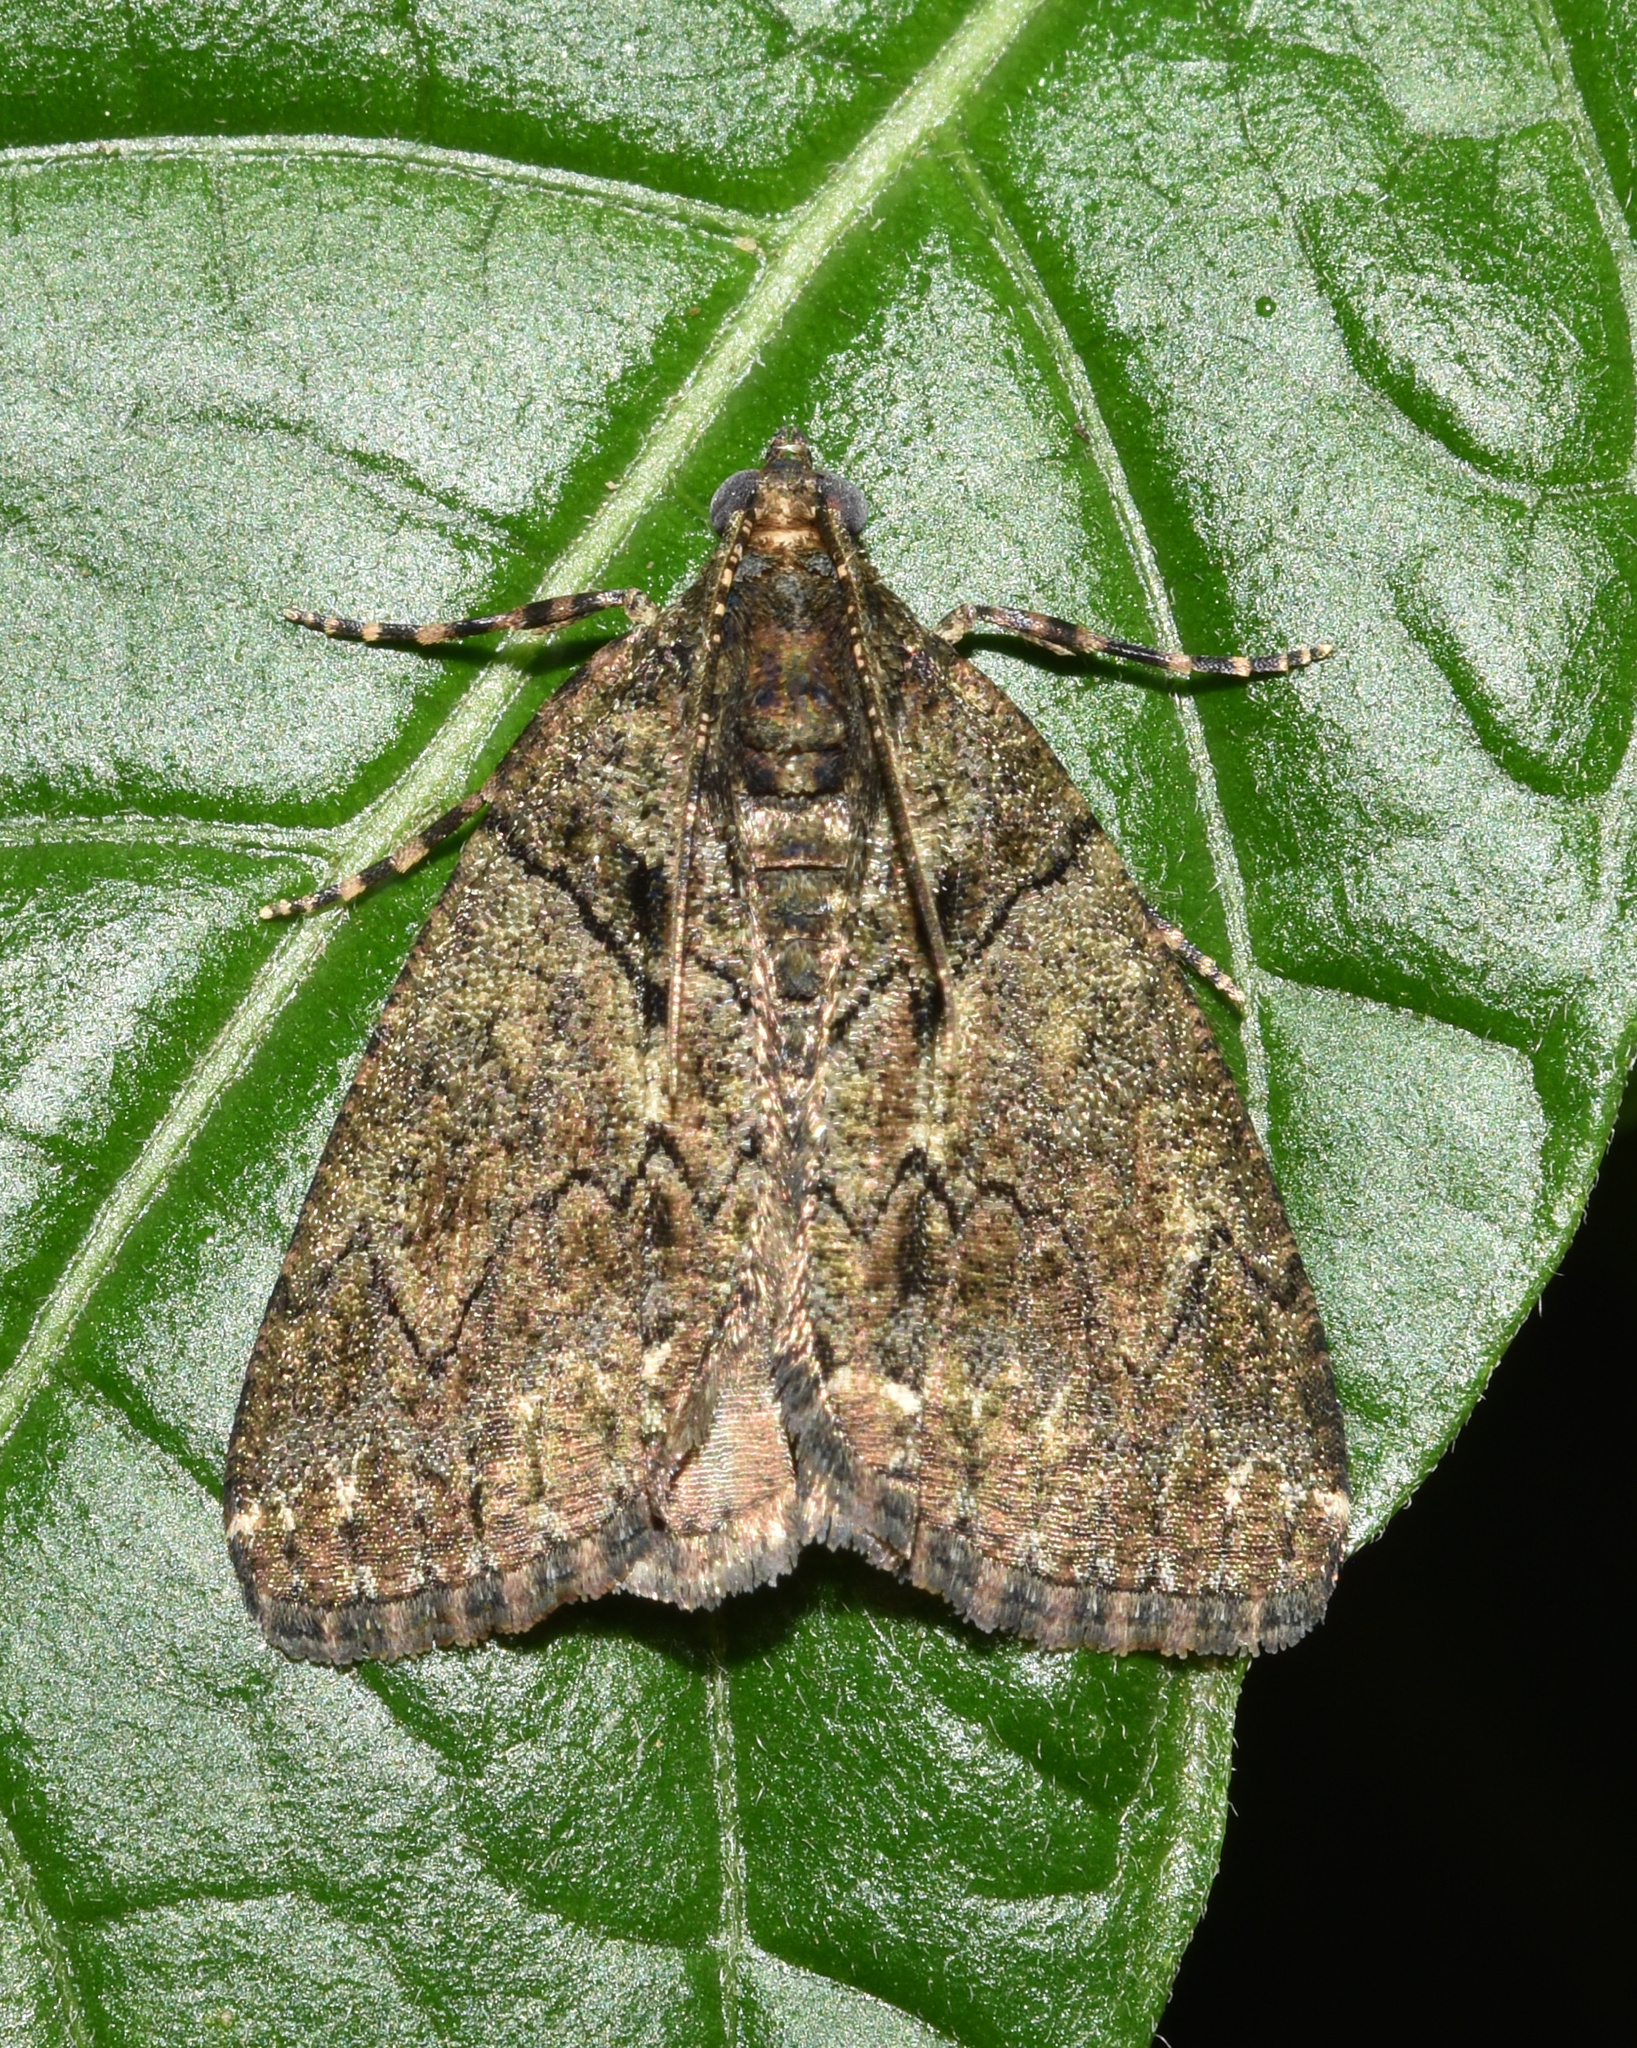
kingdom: Animalia
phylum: Arthropoda
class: Insecta
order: Lepidoptera
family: Geometridae
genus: Xylopteryx
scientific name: Xylopteryx arcuata
